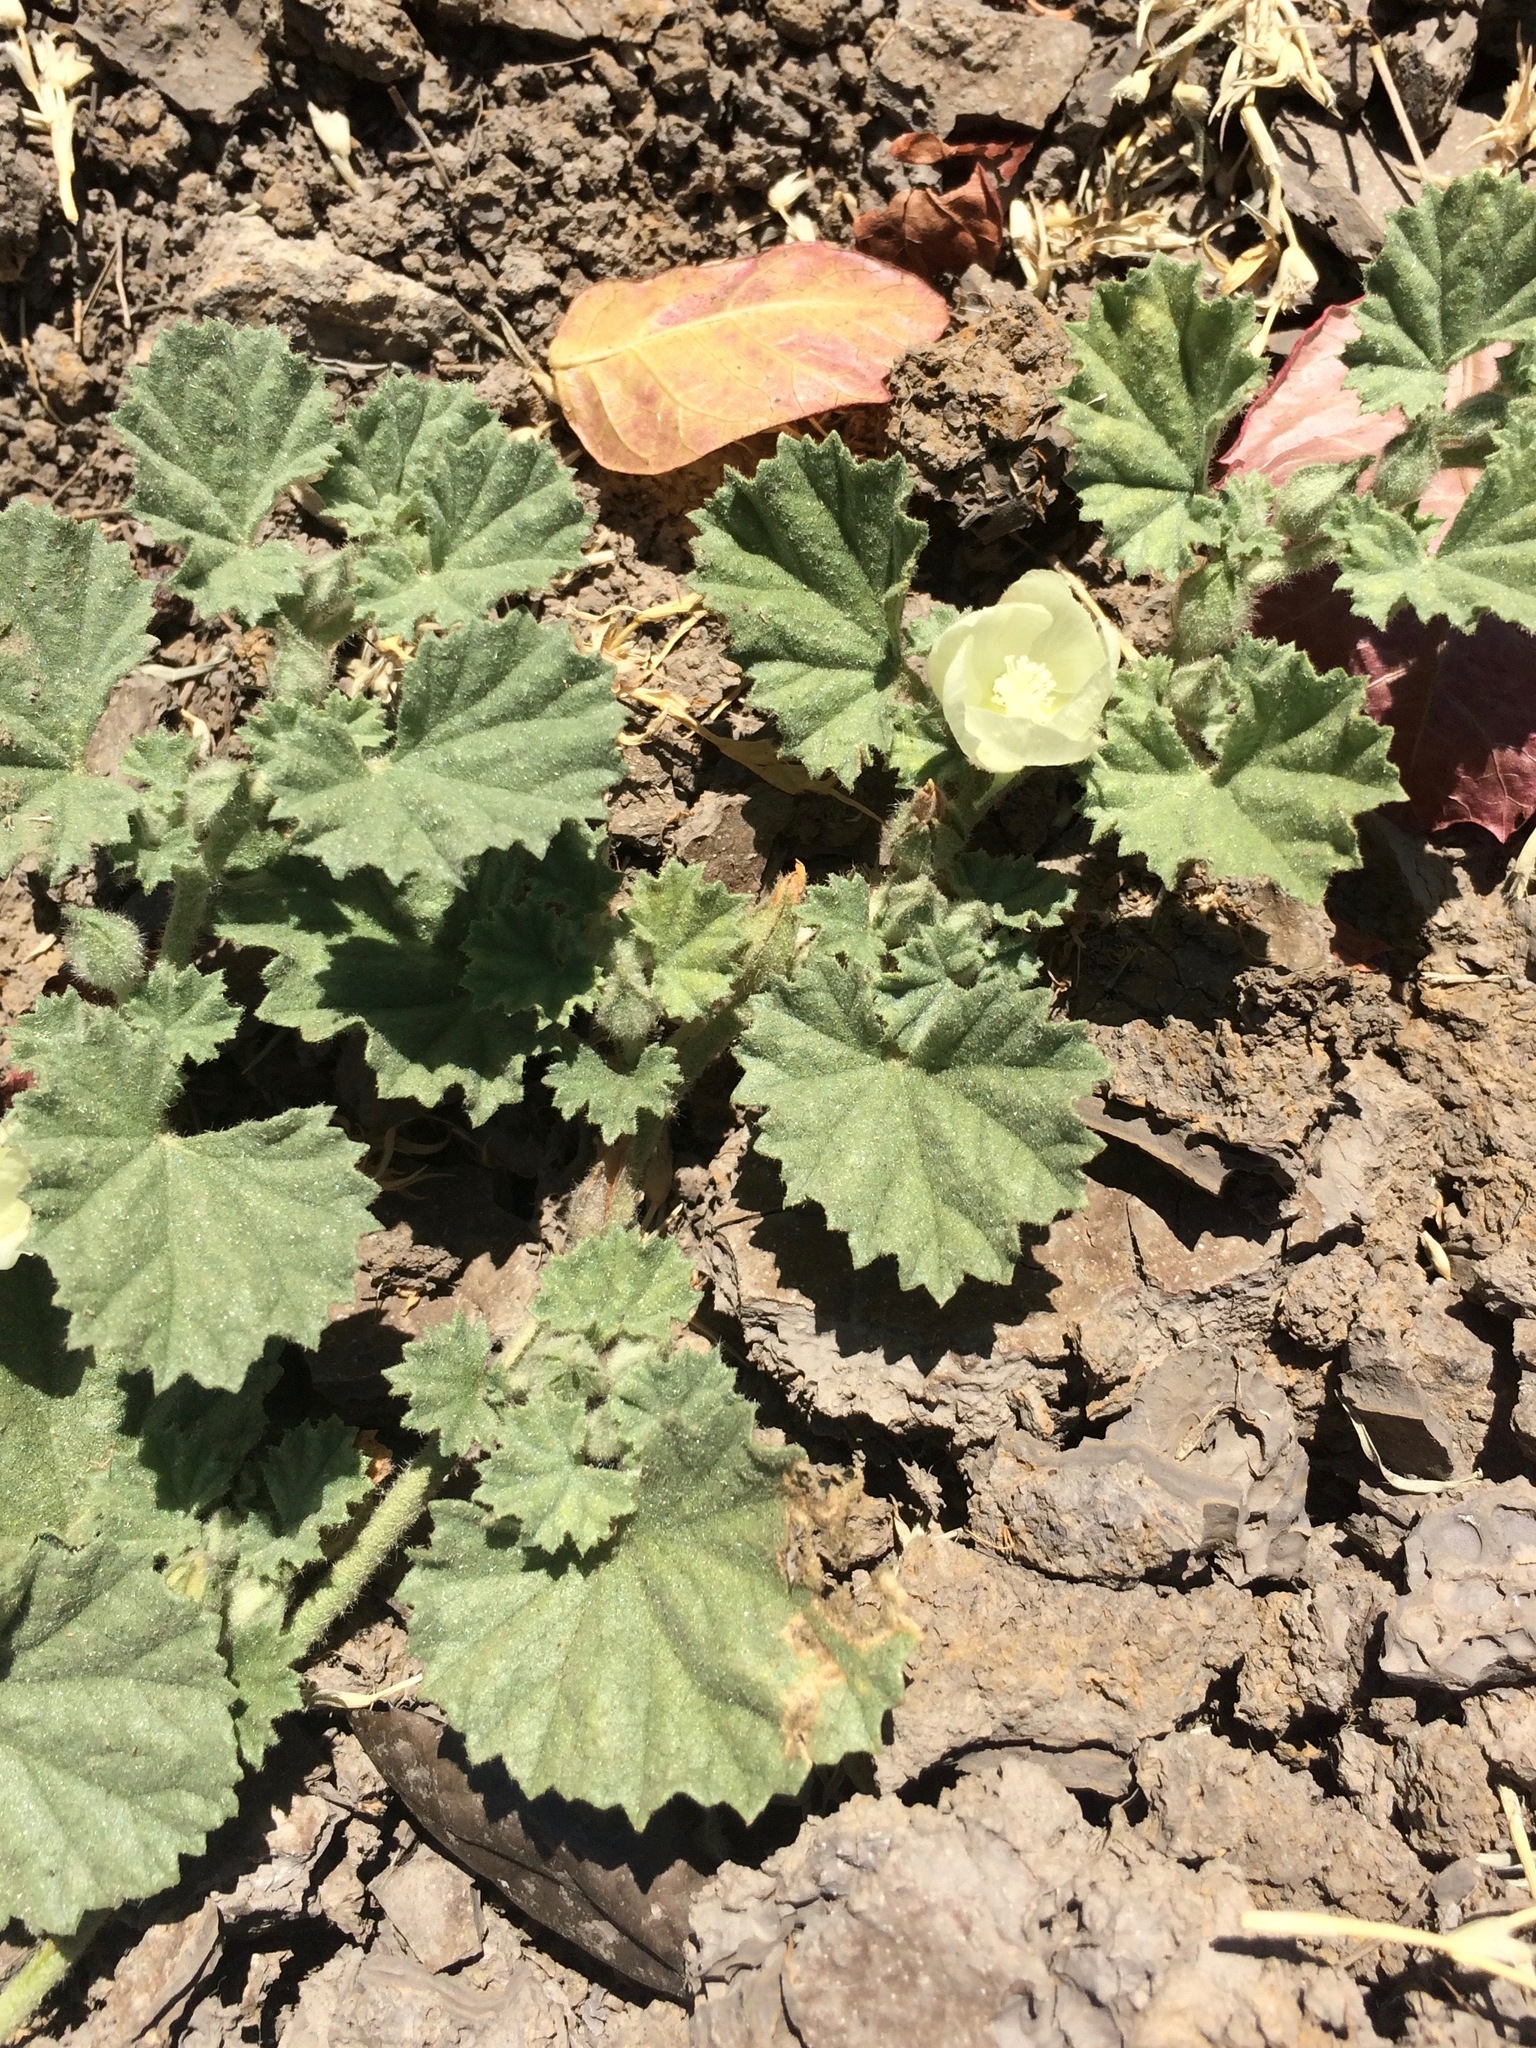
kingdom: Plantae
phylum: Tracheophyta
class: Magnoliopsida
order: Malvales
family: Malvaceae
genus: Malvella
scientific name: Malvella leprosa
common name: Alkali-mallow
